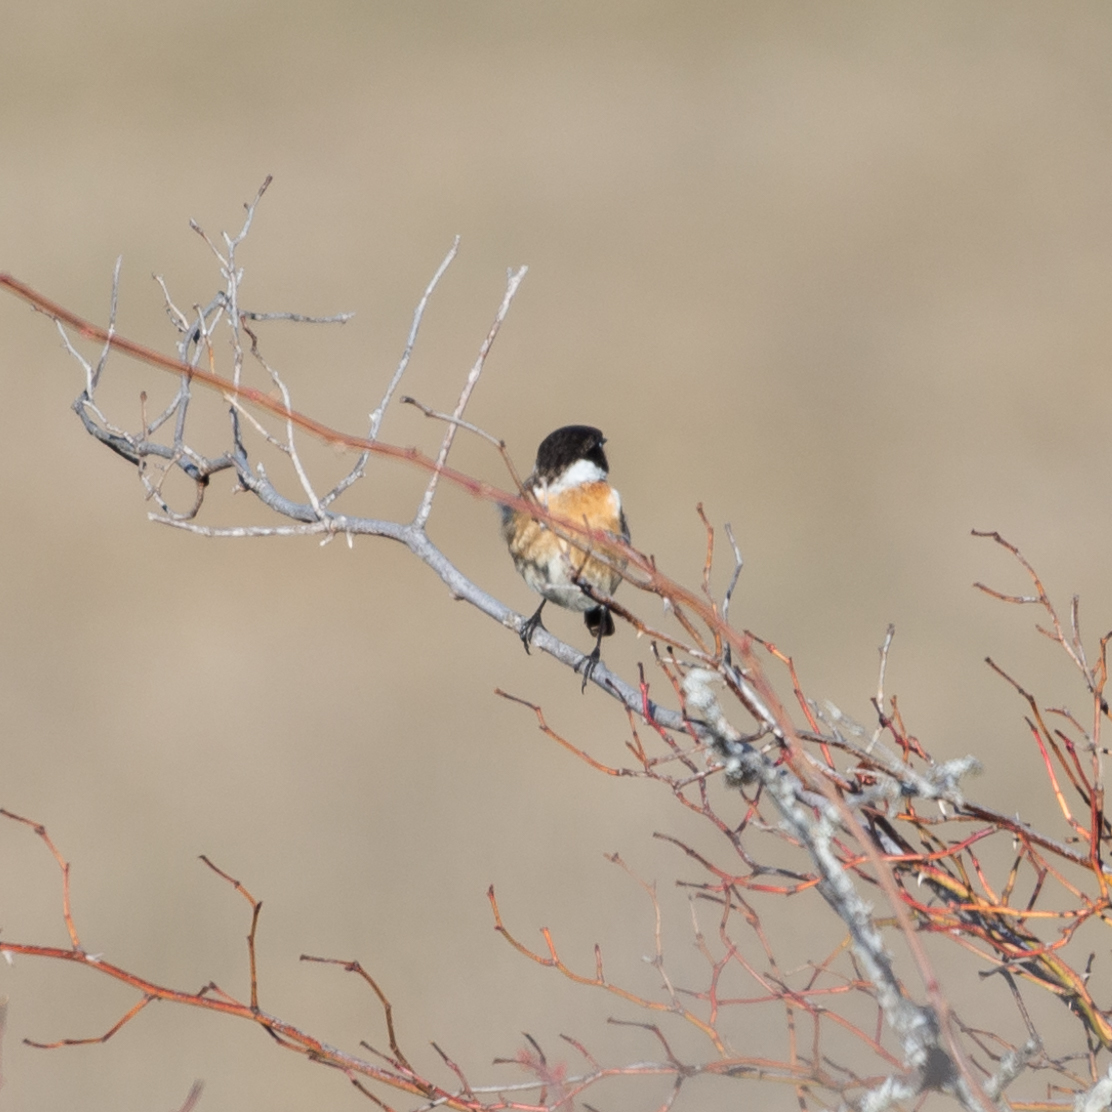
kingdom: Animalia
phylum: Chordata
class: Aves
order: Passeriformes
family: Muscicapidae
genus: Saxicola
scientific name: Saxicola rubicola
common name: European stonechat
